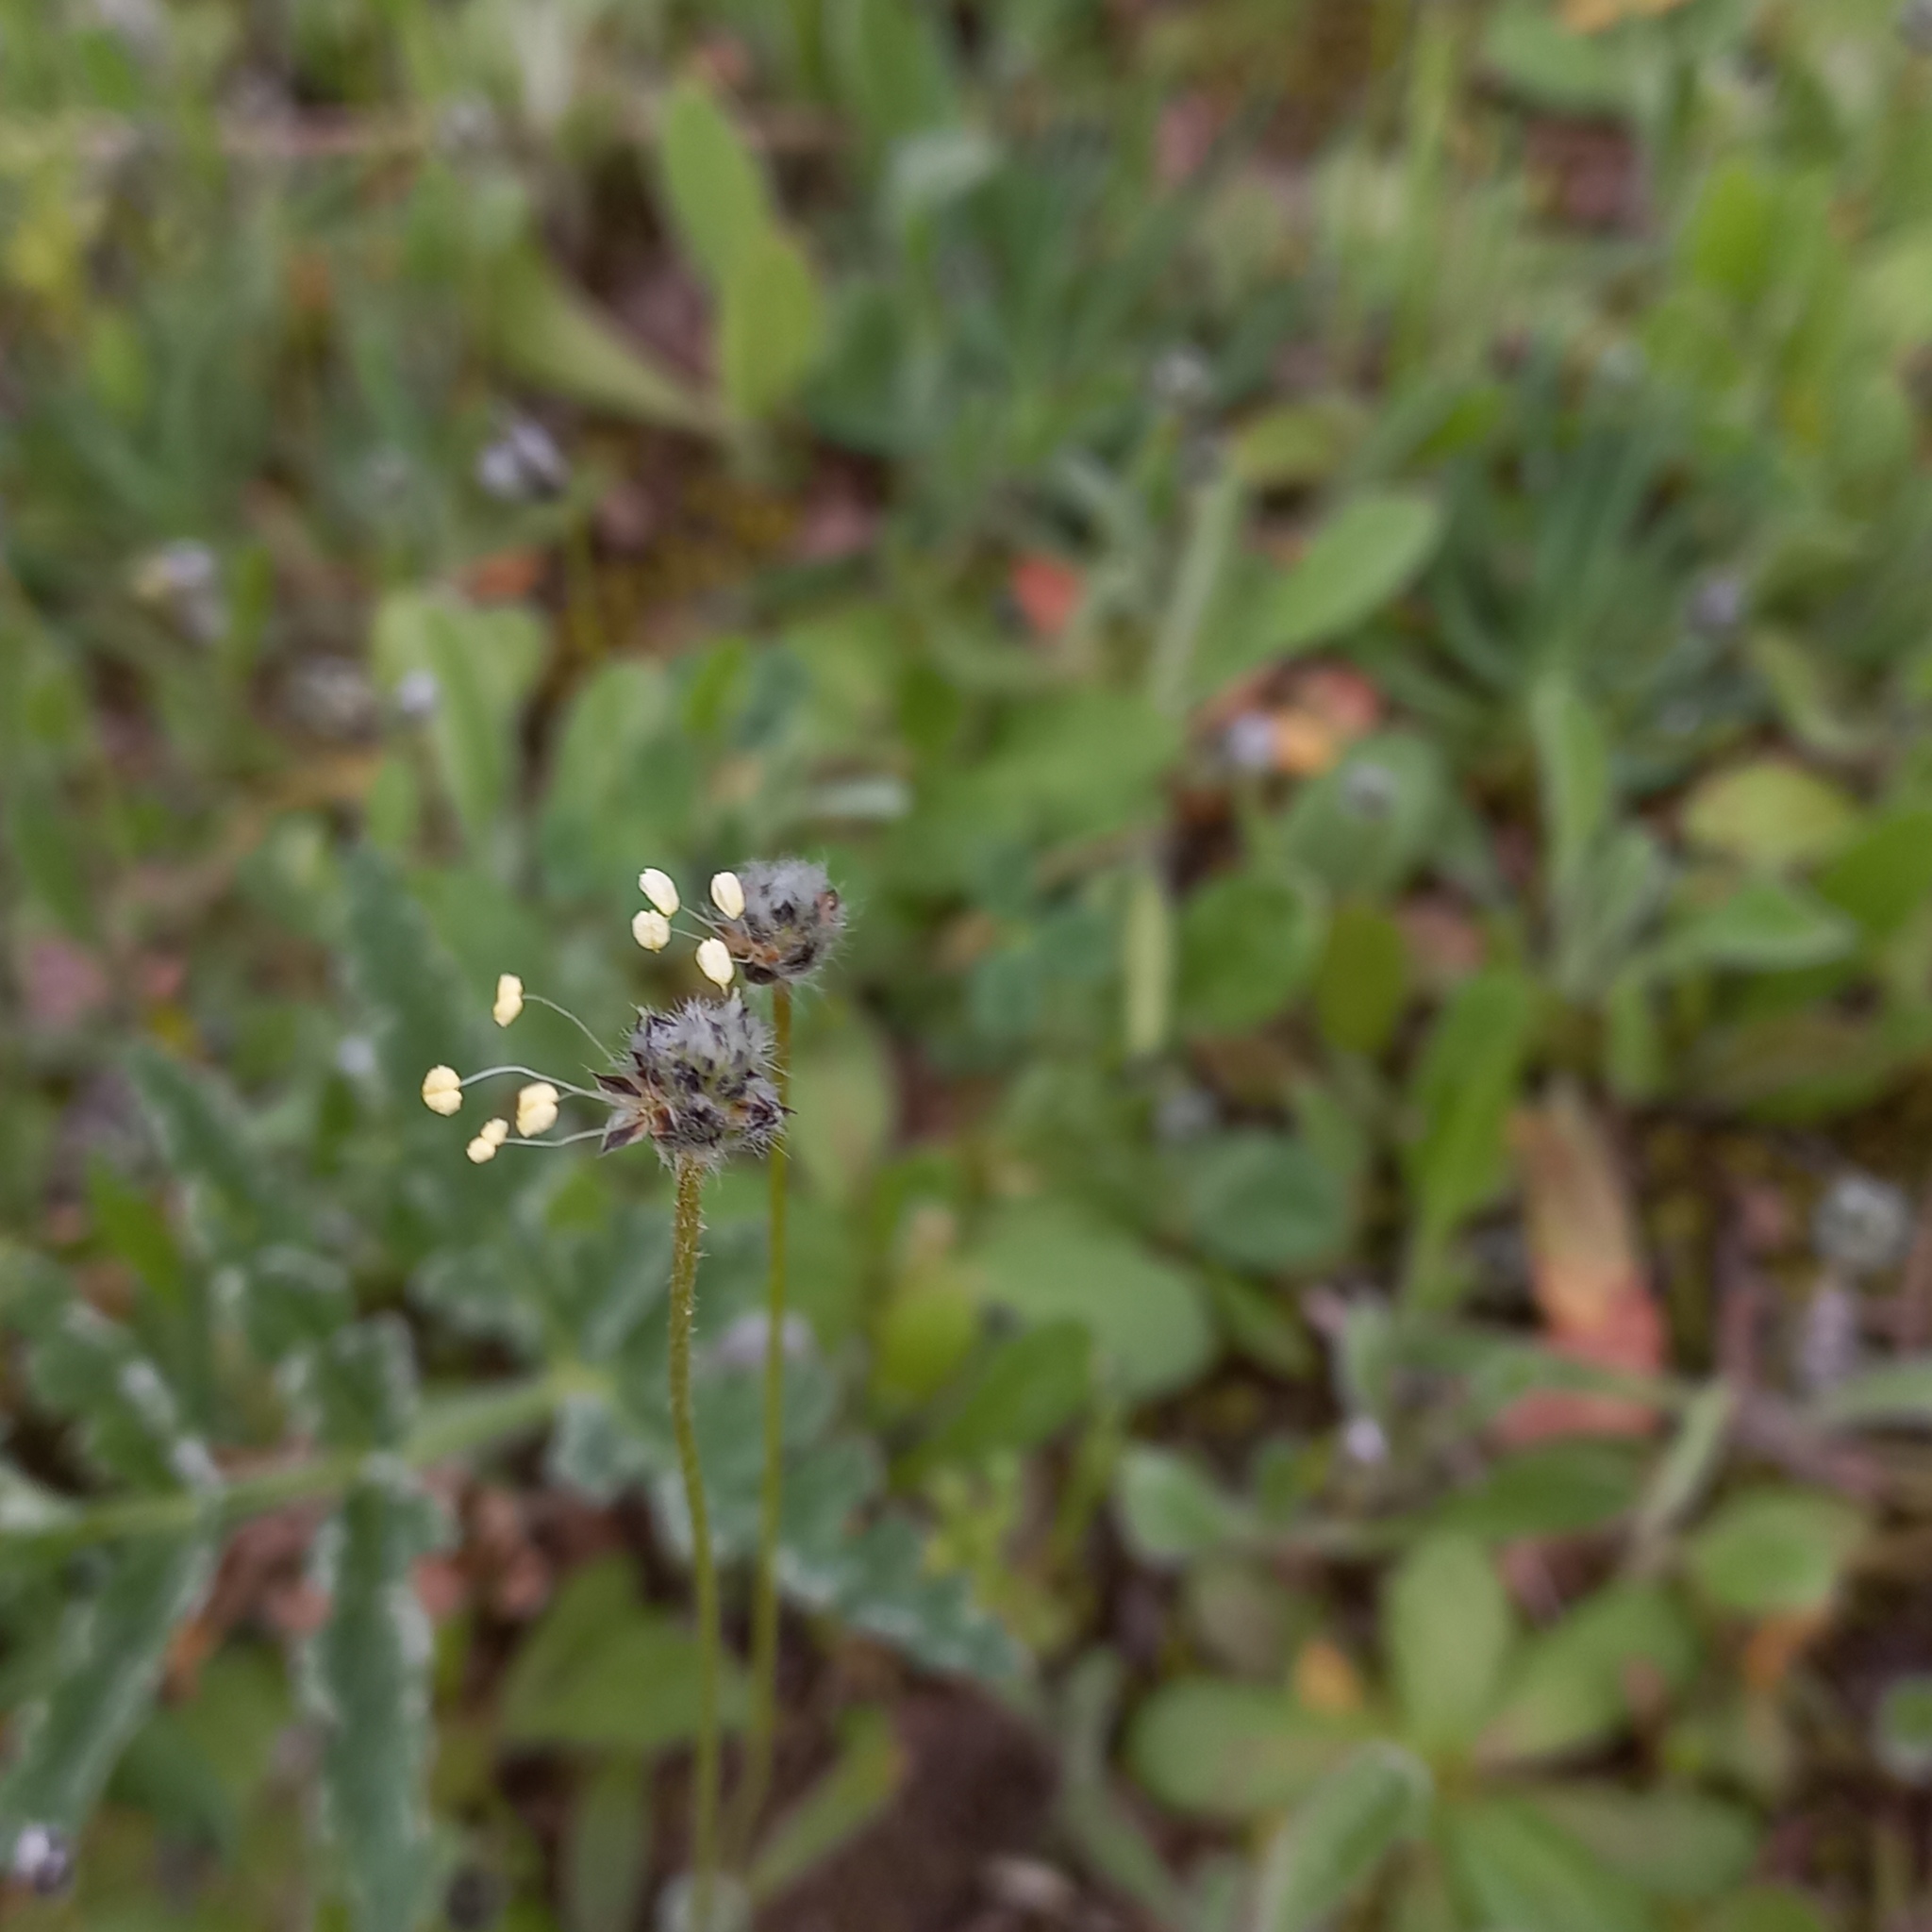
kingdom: Plantae
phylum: Tracheophyta
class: Magnoliopsida
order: Lamiales
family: Plantaginaceae
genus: Plantago
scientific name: Plantago lagopus
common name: Hare-foot plantain
